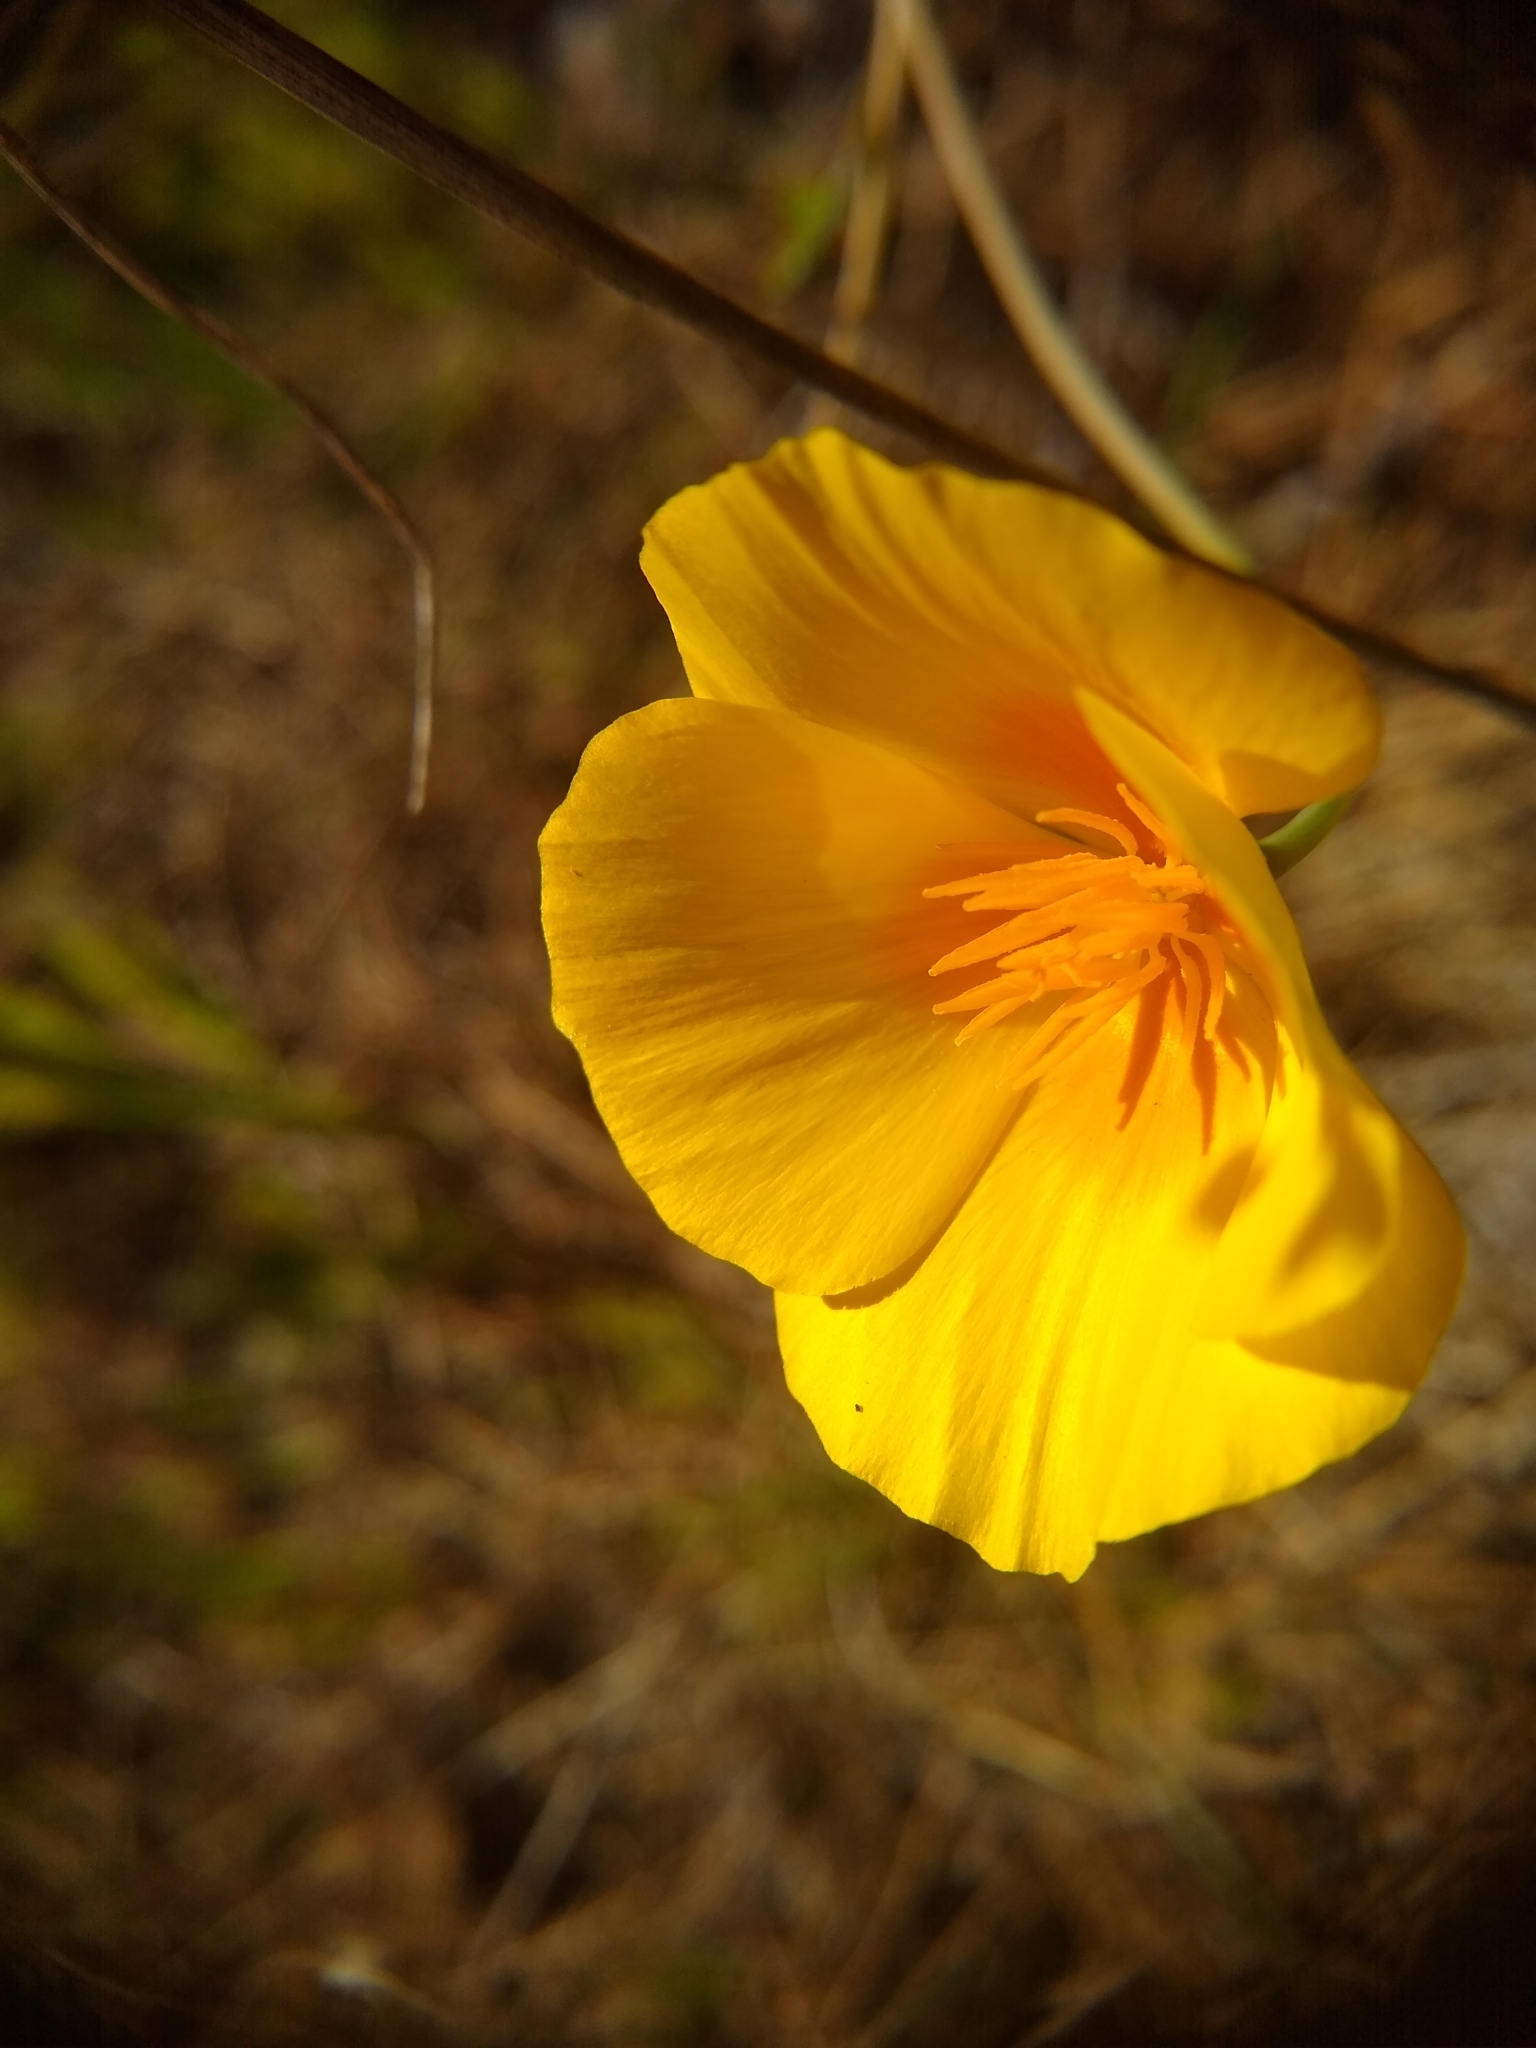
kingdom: Plantae
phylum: Tracheophyta
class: Magnoliopsida
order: Ranunculales
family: Papaveraceae
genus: Eschscholzia
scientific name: Eschscholzia californica
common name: California poppy
